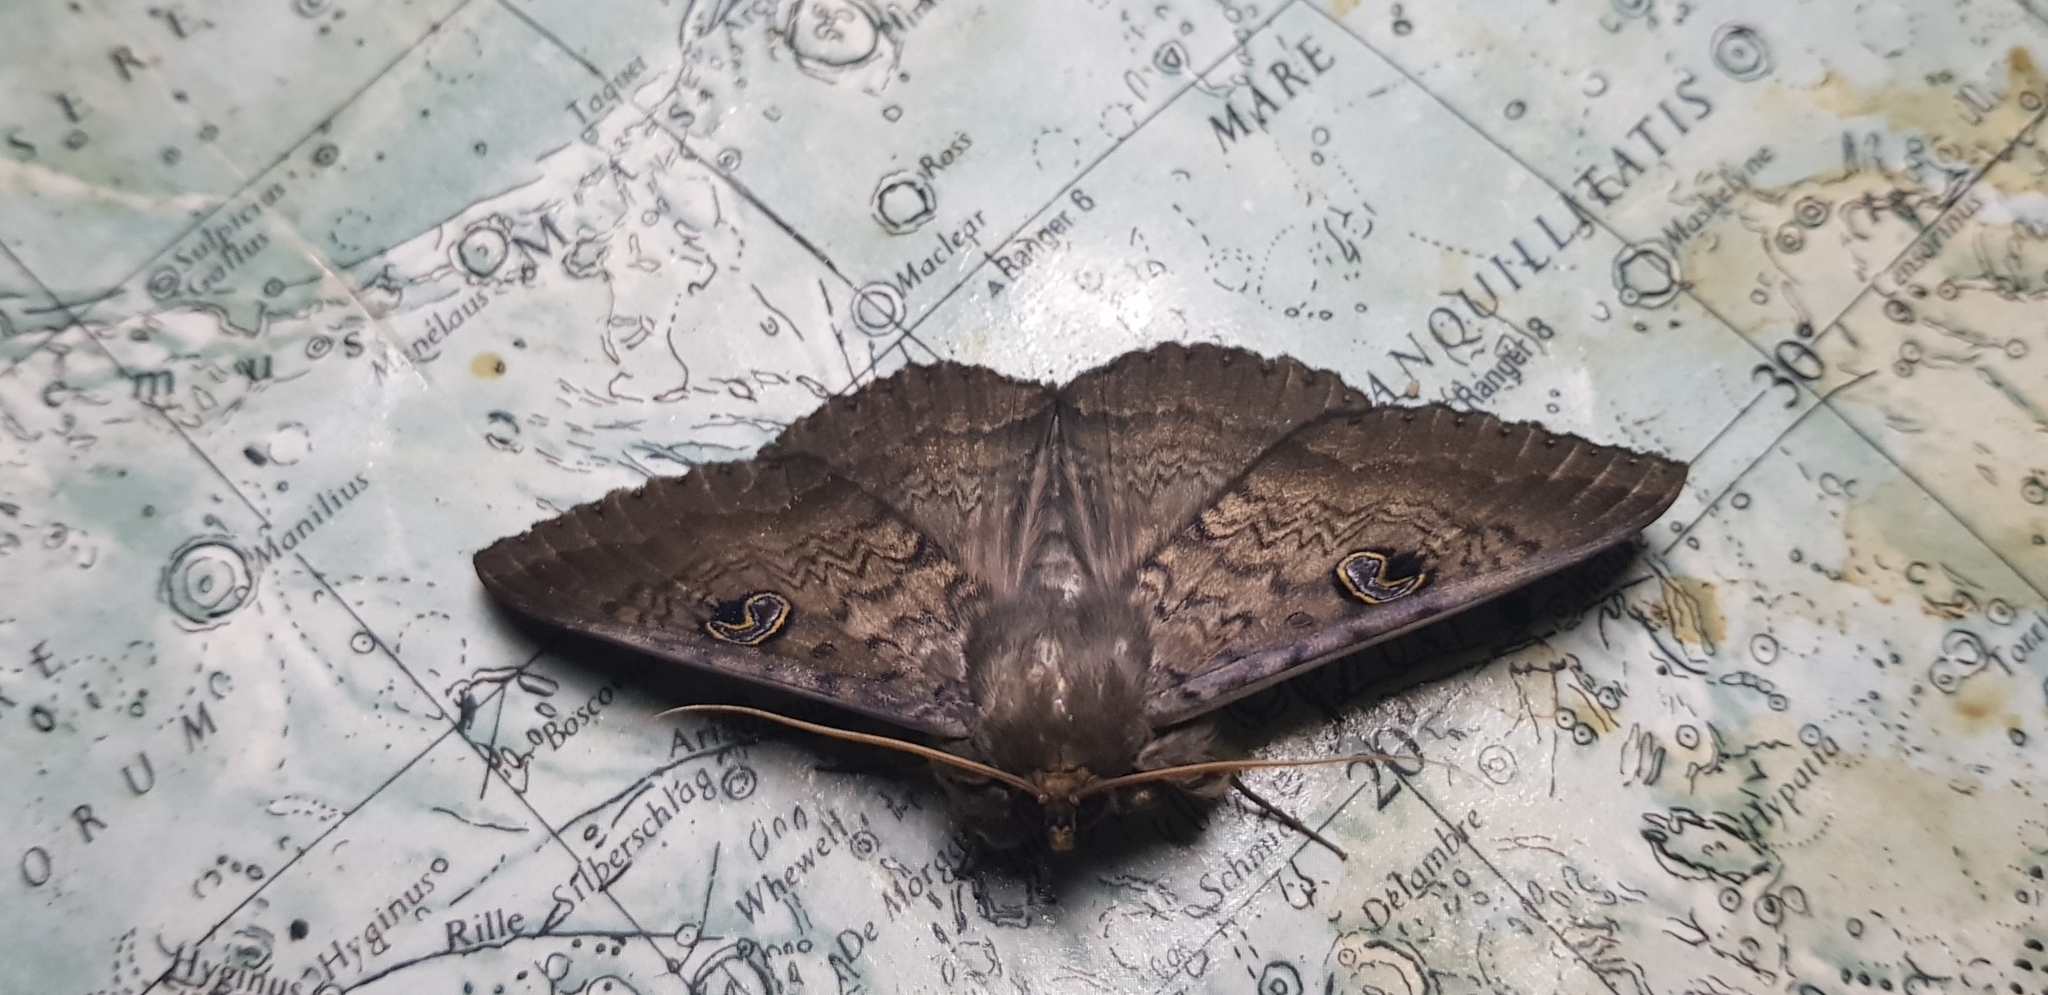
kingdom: Animalia
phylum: Arthropoda
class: Insecta
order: Lepidoptera
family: Erebidae
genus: Dasypodia
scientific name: Dasypodia cymatodes
